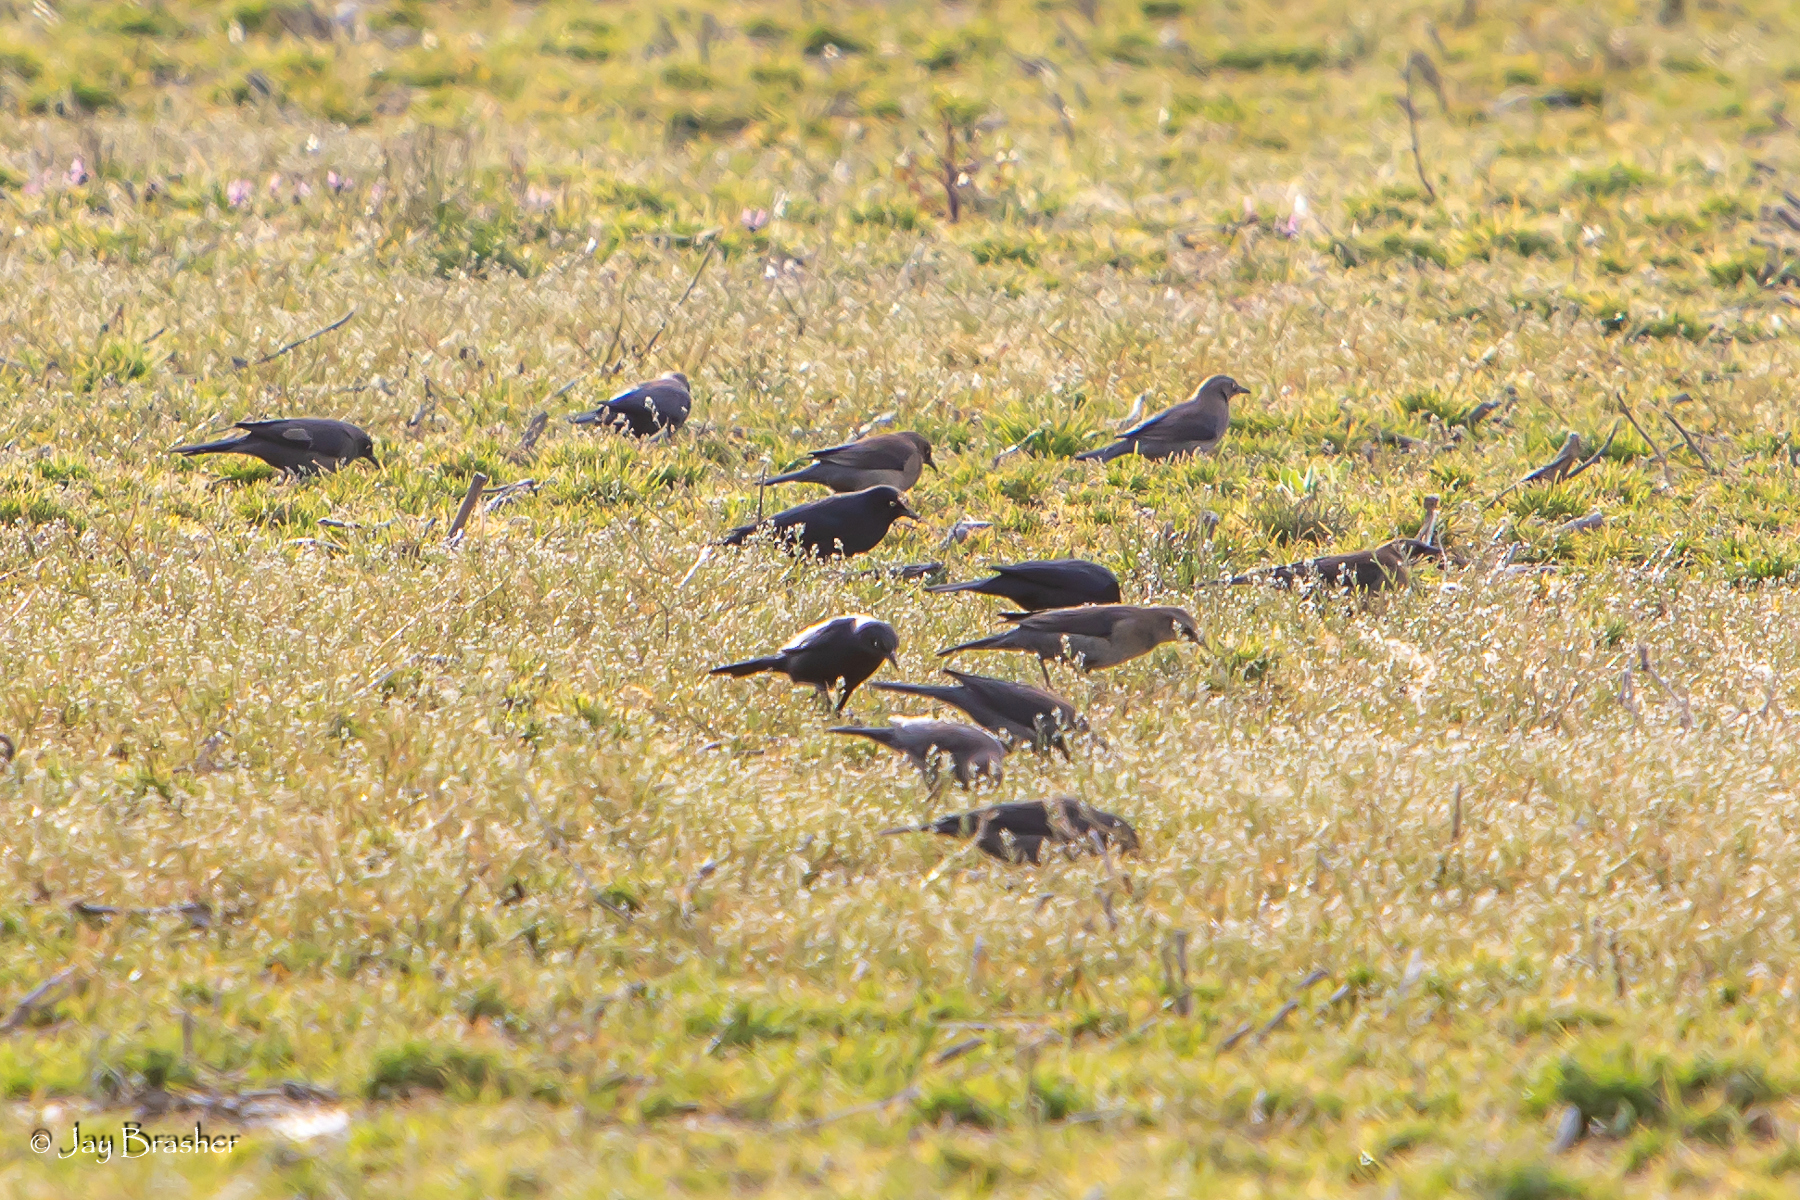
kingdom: Animalia
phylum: Chordata
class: Aves
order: Passeriformes
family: Icteridae
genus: Euphagus
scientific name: Euphagus carolinus
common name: Rusty blackbird
